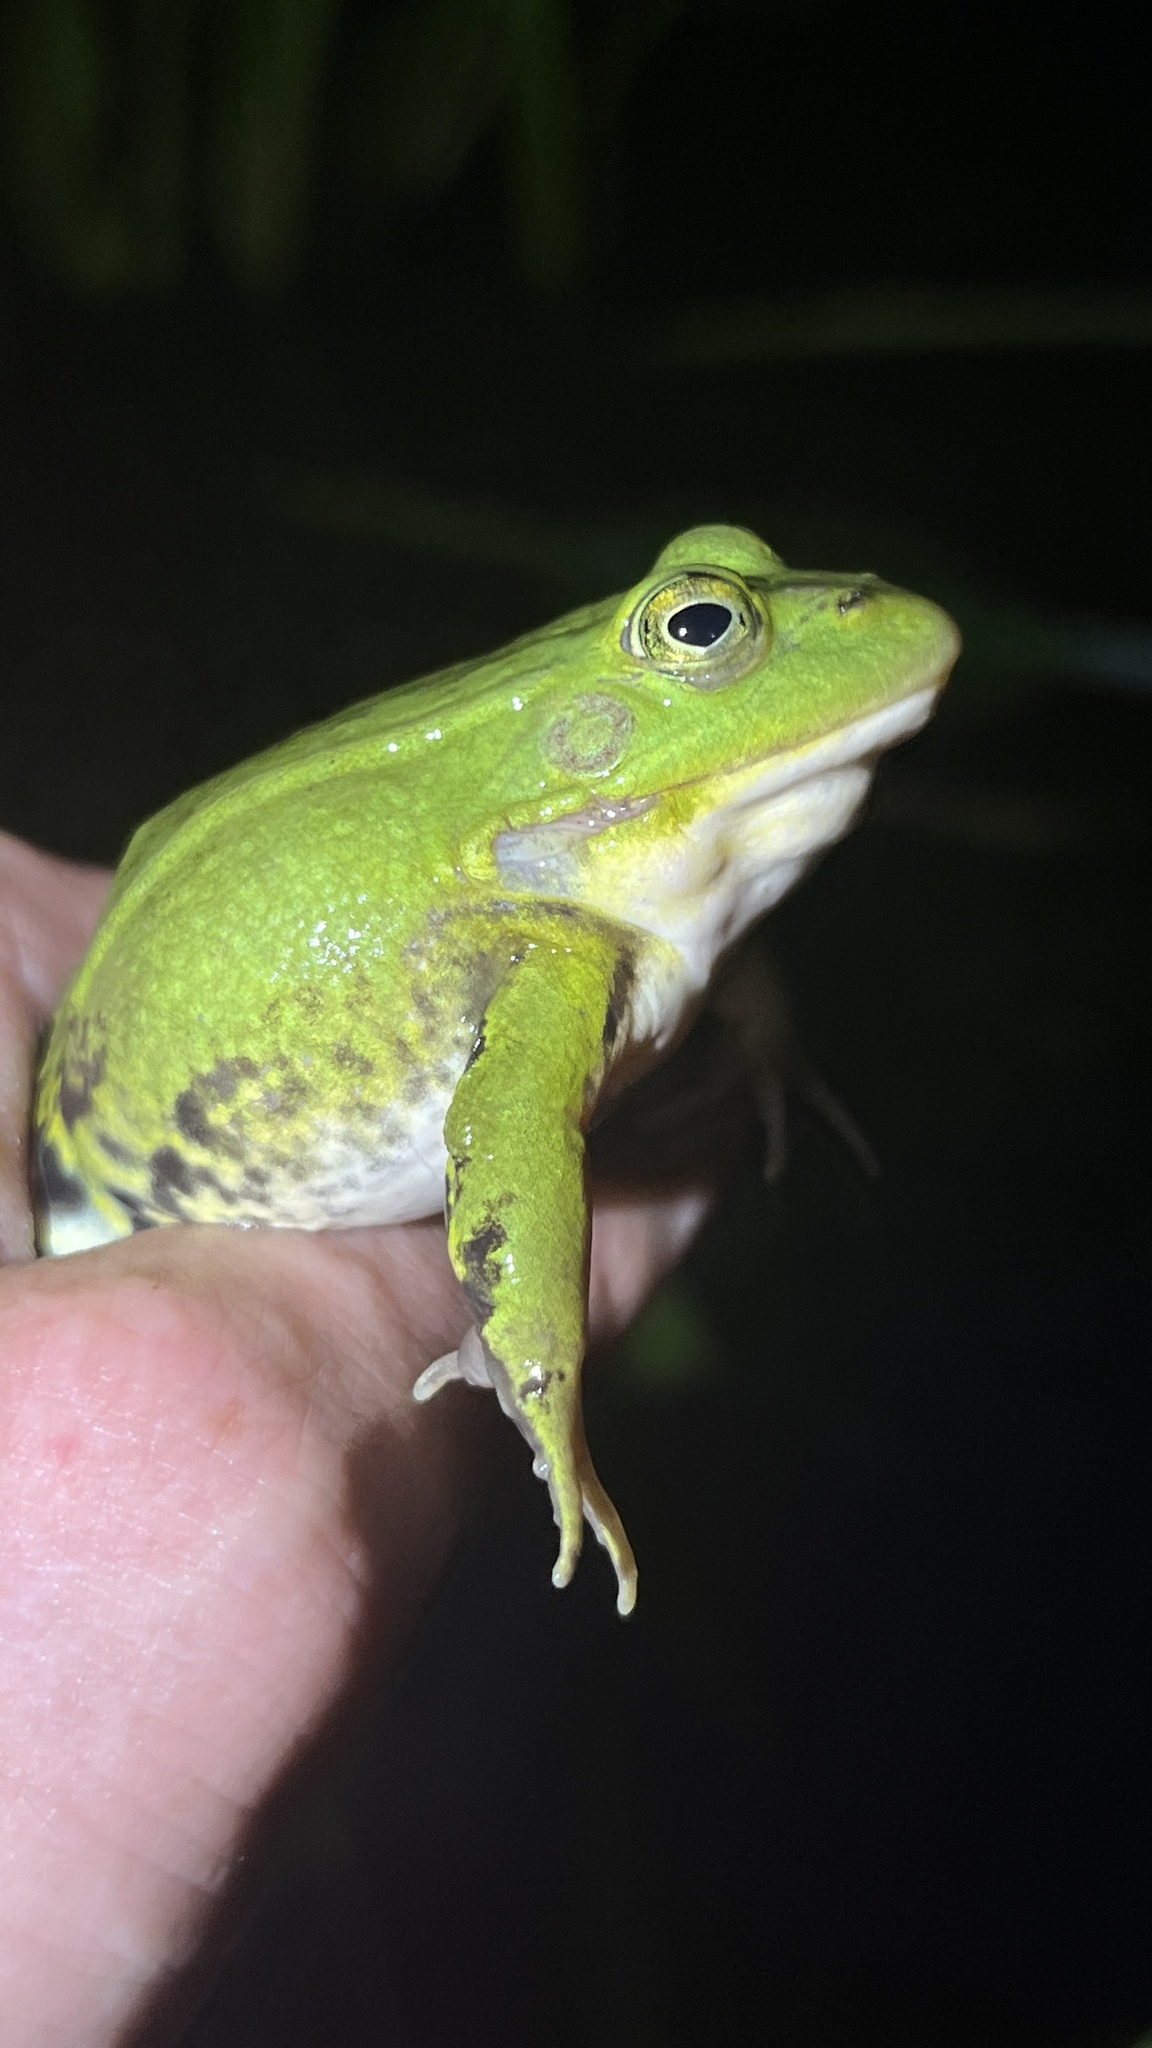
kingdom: Animalia
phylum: Chordata
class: Amphibia
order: Anura
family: Ranidae
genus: Pelophylax
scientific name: Pelophylax lessonae
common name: Pool frog
